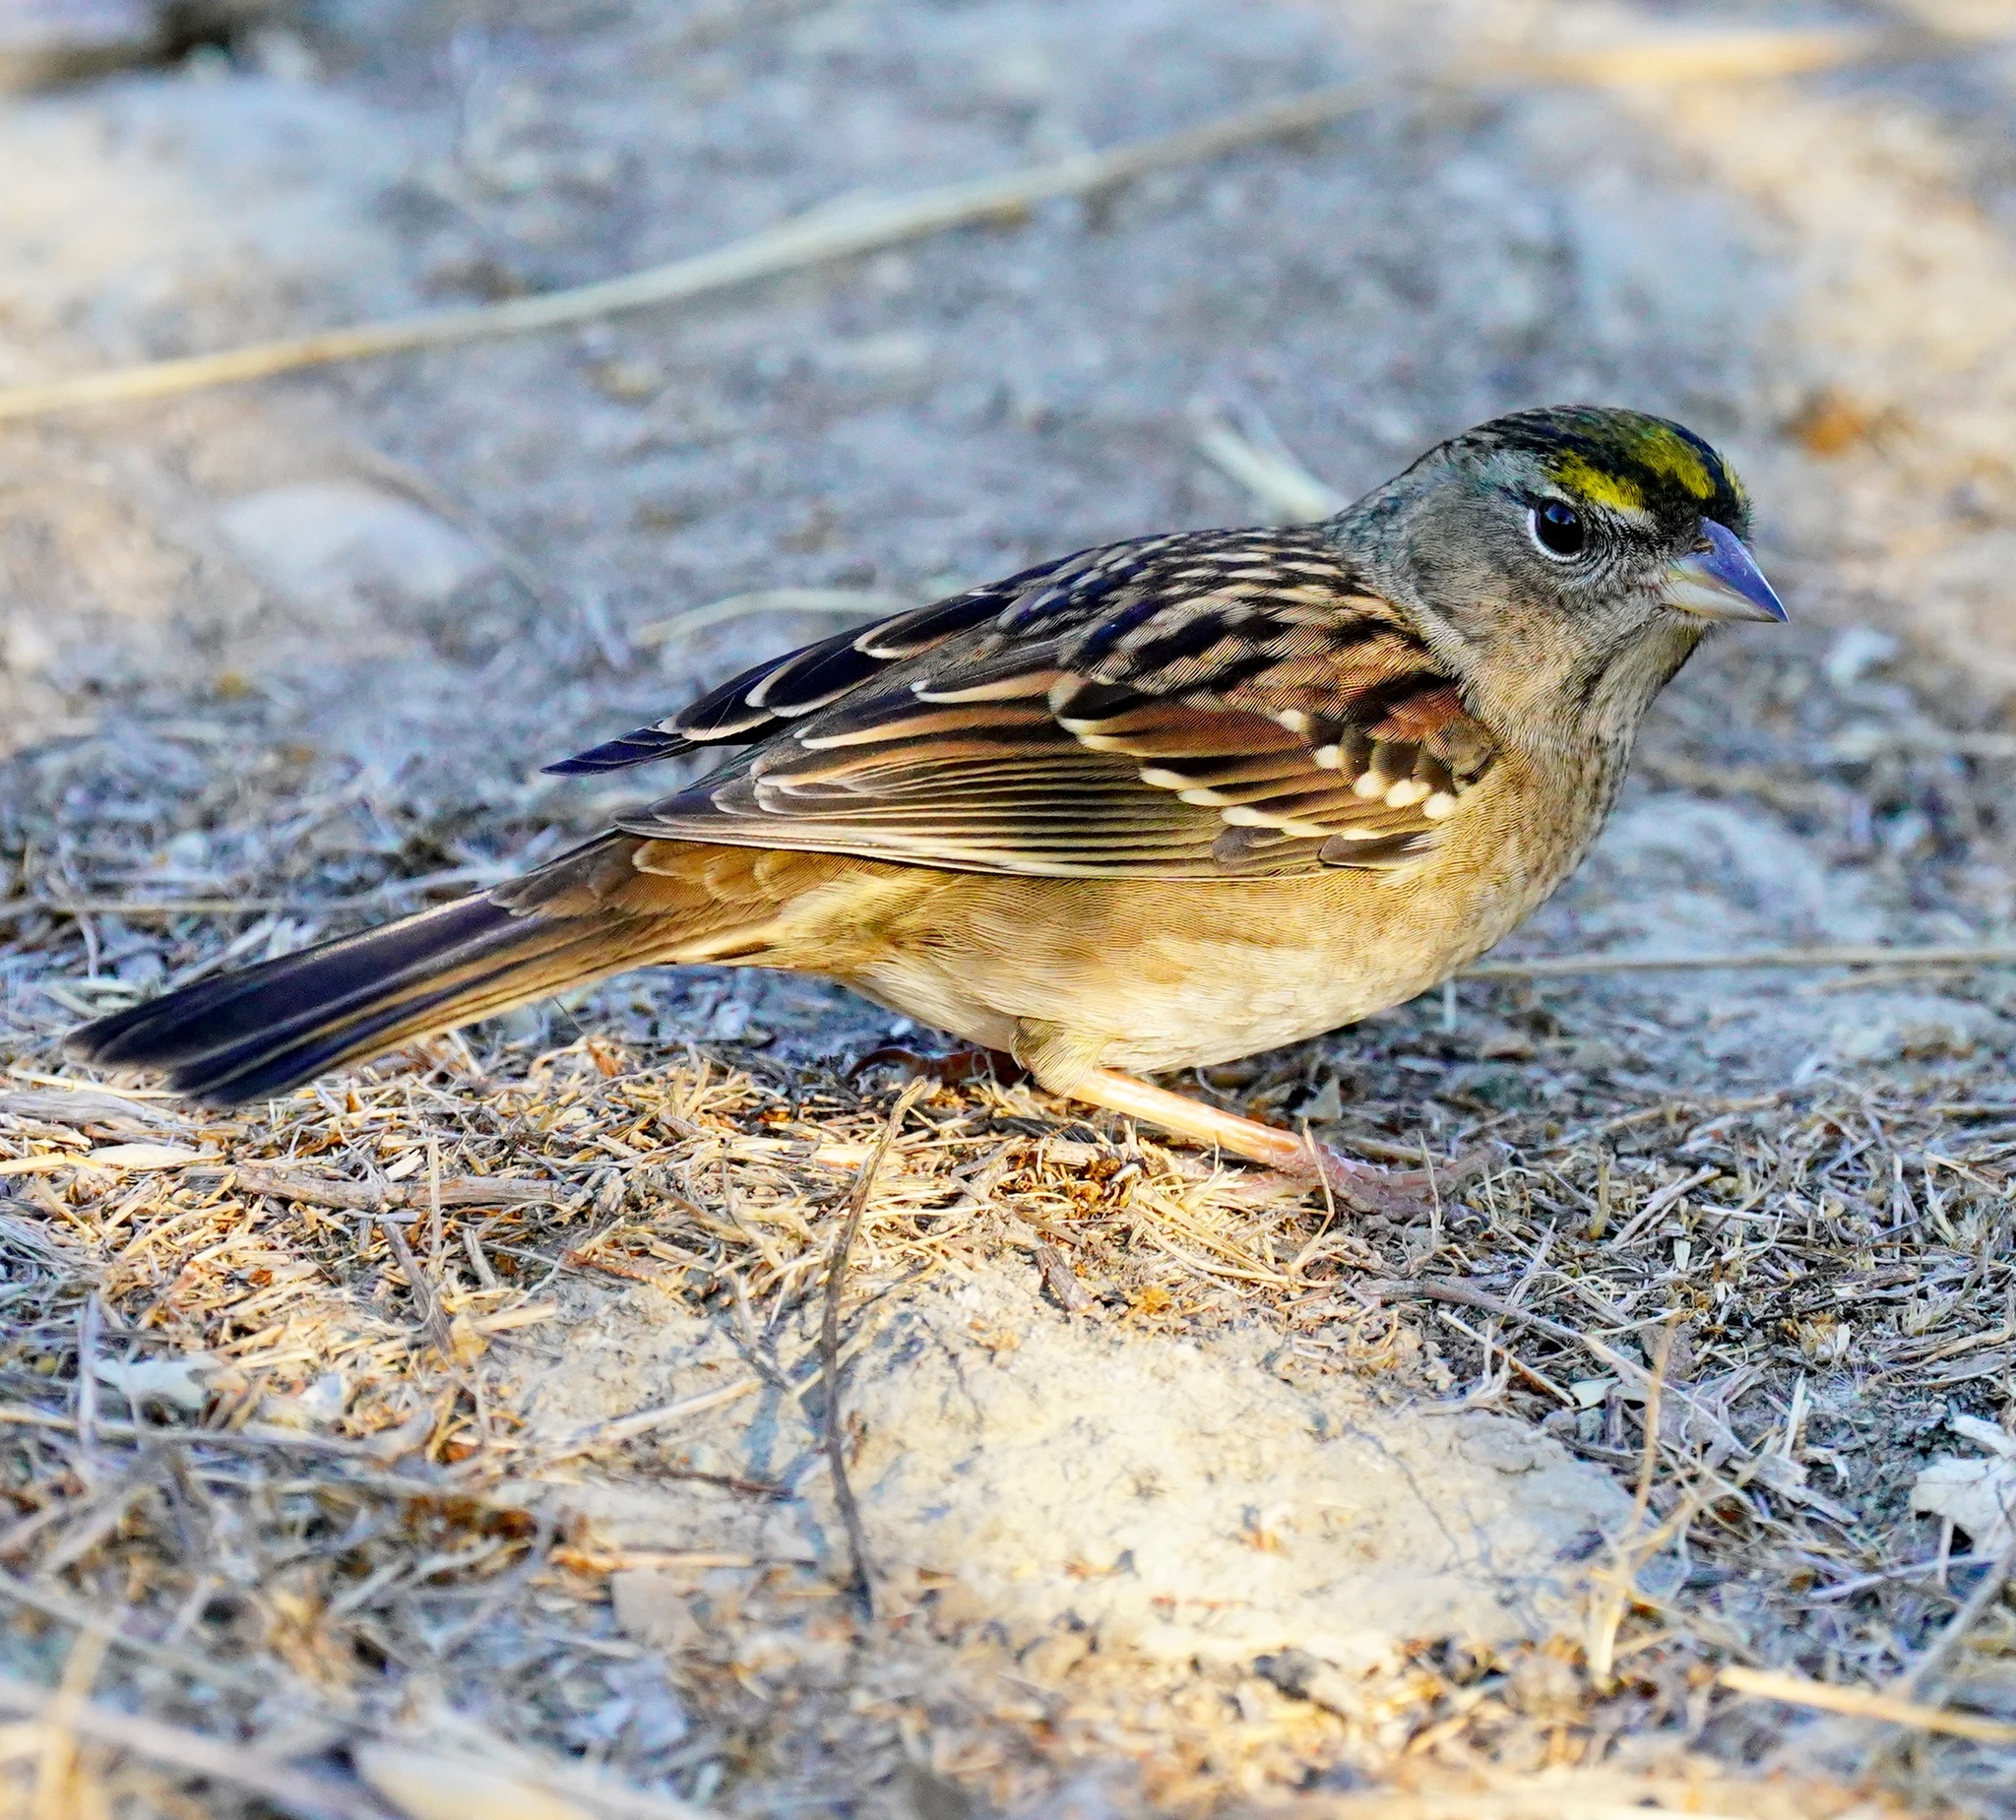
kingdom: Animalia
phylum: Chordata
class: Aves
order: Passeriformes
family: Passerellidae
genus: Zonotrichia
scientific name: Zonotrichia atricapilla
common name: Golden-crowned sparrow
